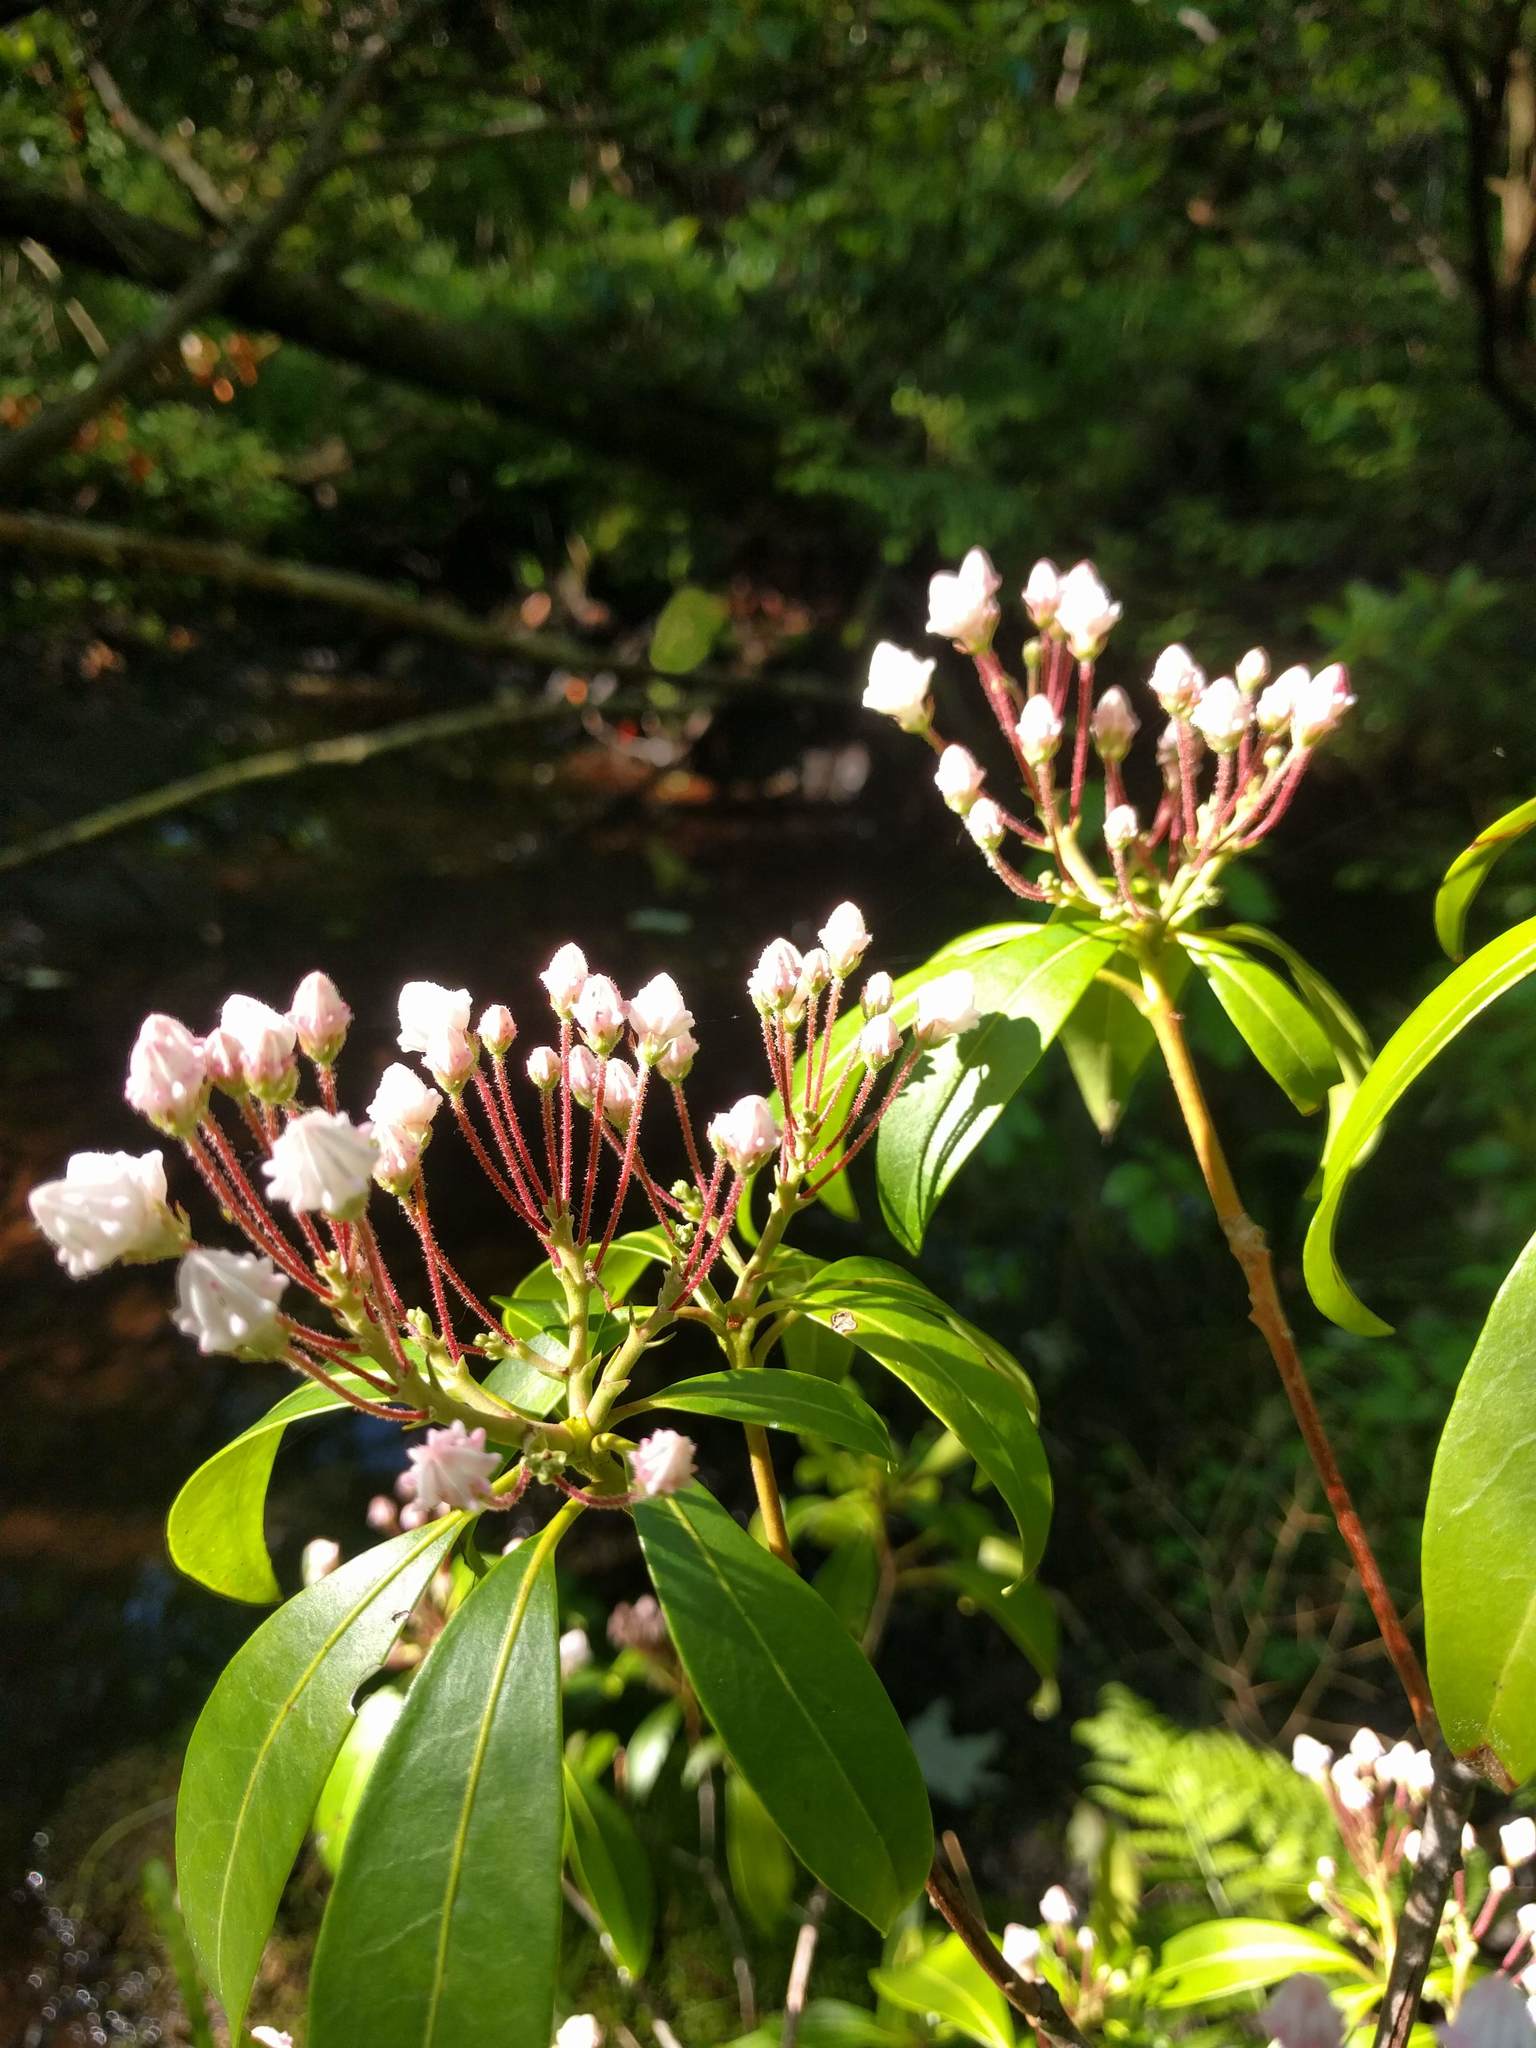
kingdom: Plantae
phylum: Tracheophyta
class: Magnoliopsida
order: Ericales
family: Ericaceae
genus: Kalmia
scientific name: Kalmia latifolia
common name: Mountain-laurel
